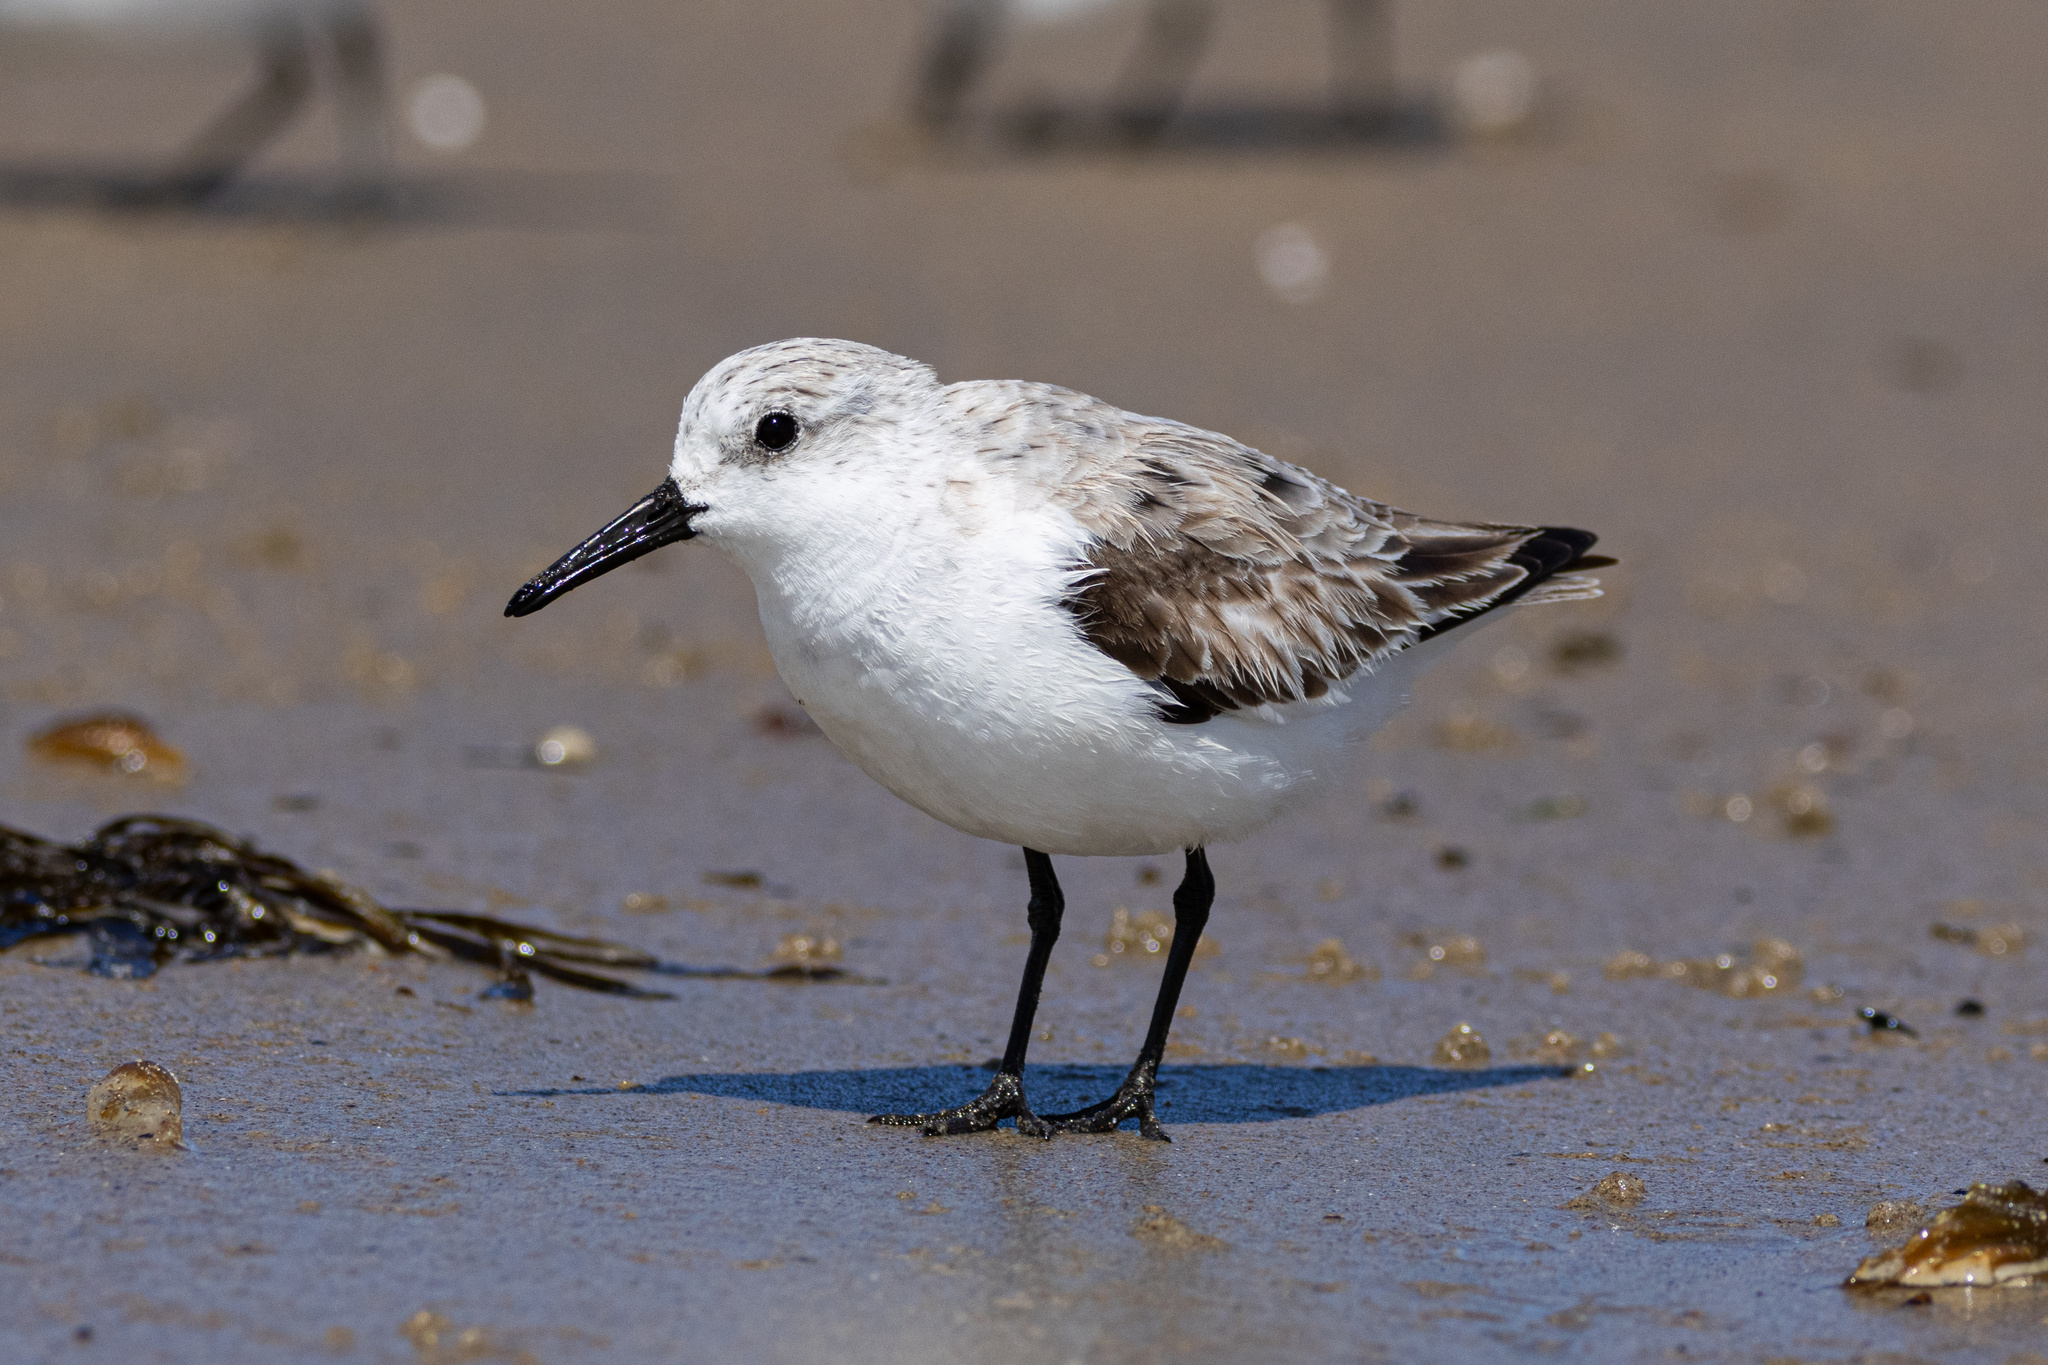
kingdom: Animalia
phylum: Chordata
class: Aves
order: Charadriiformes
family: Scolopacidae
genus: Calidris
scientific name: Calidris alba
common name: Sanderling
